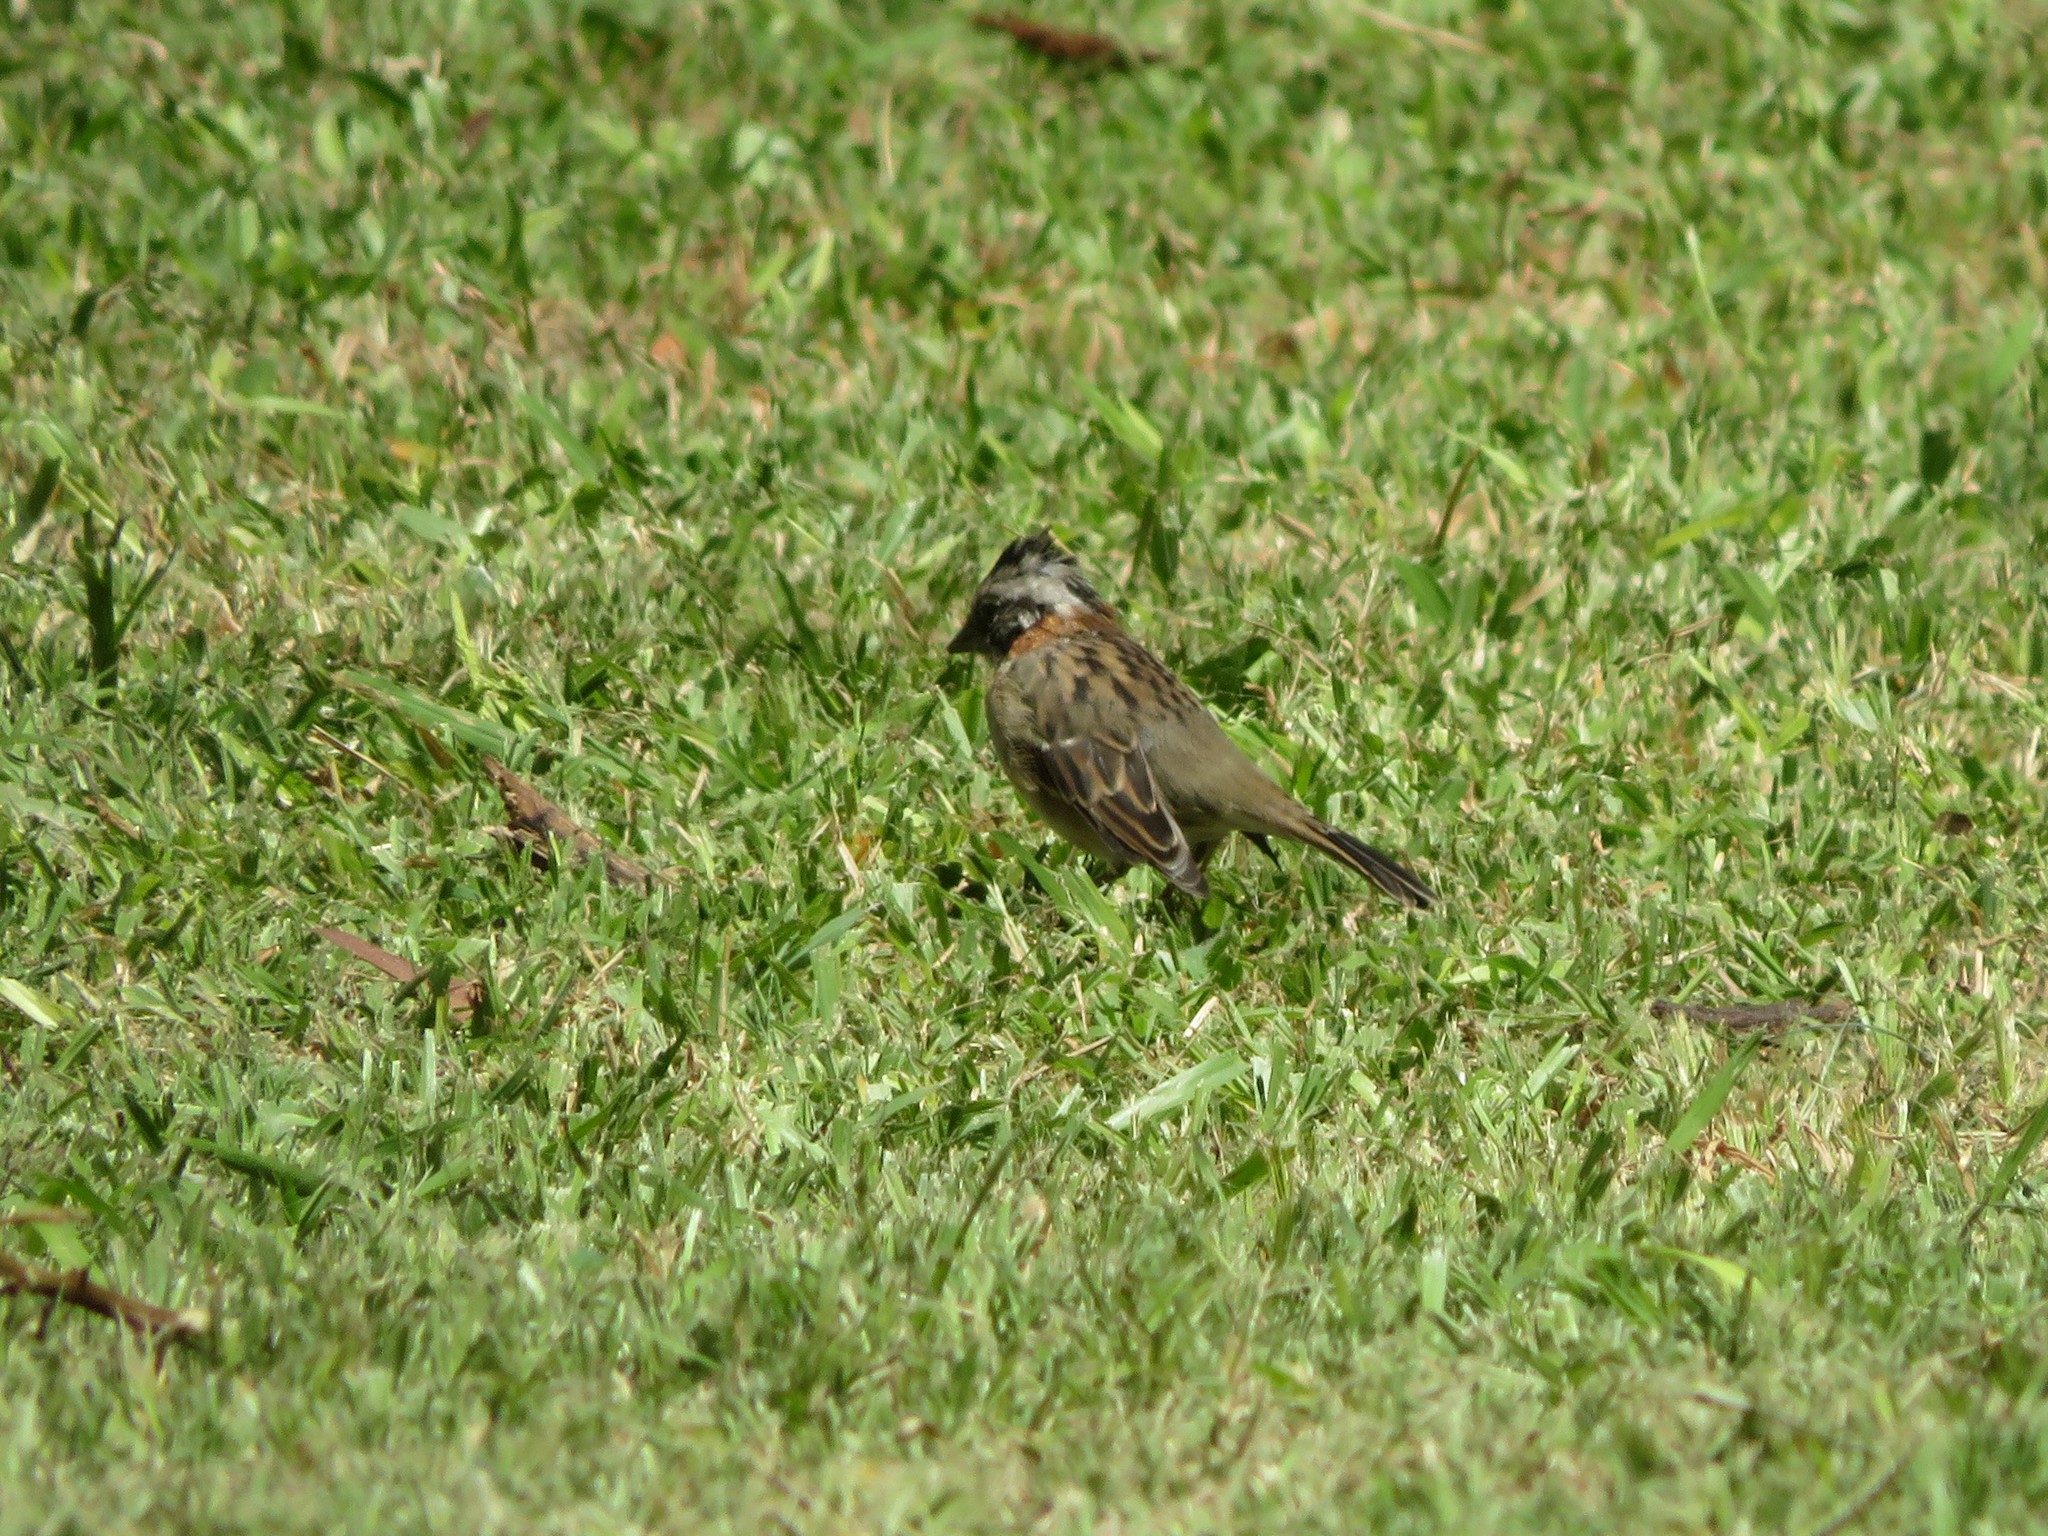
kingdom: Animalia
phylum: Chordata
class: Aves
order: Passeriformes
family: Passerellidae
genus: Zonotrichia
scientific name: Zonotrichia capensis
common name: Rufous-collared sparrow
